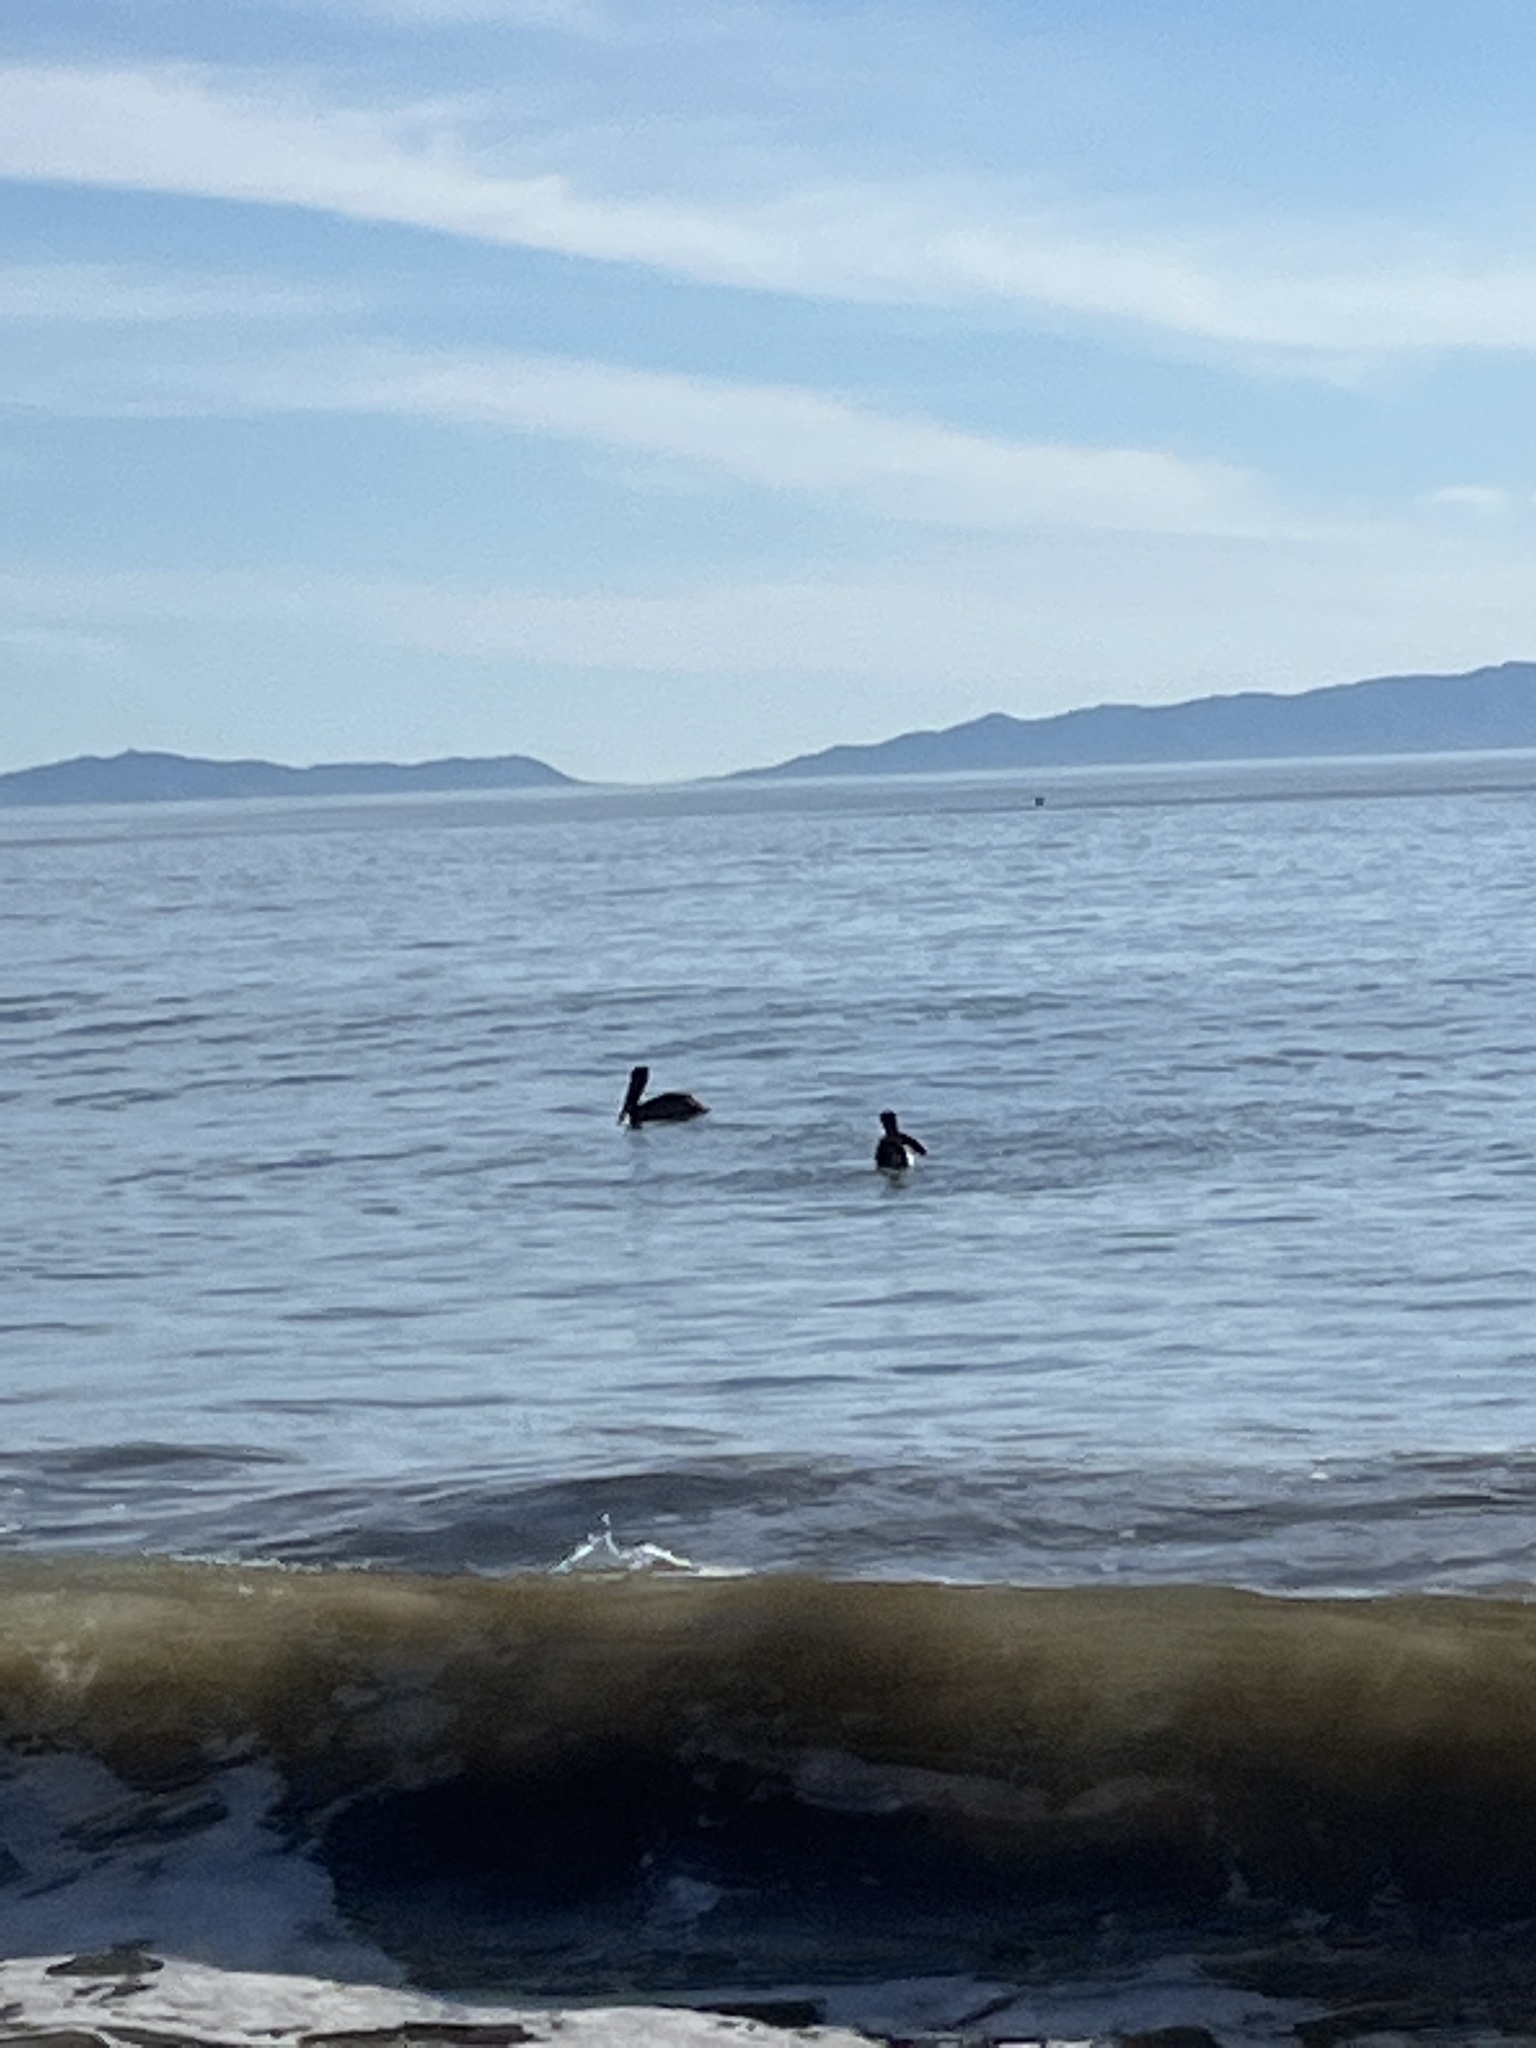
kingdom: Animalia
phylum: Chordata
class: Aves
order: Pelecaniformes
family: Pelecanidae
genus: Pelecanus
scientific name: Pelecanus occidentalis
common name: Brown pelican
